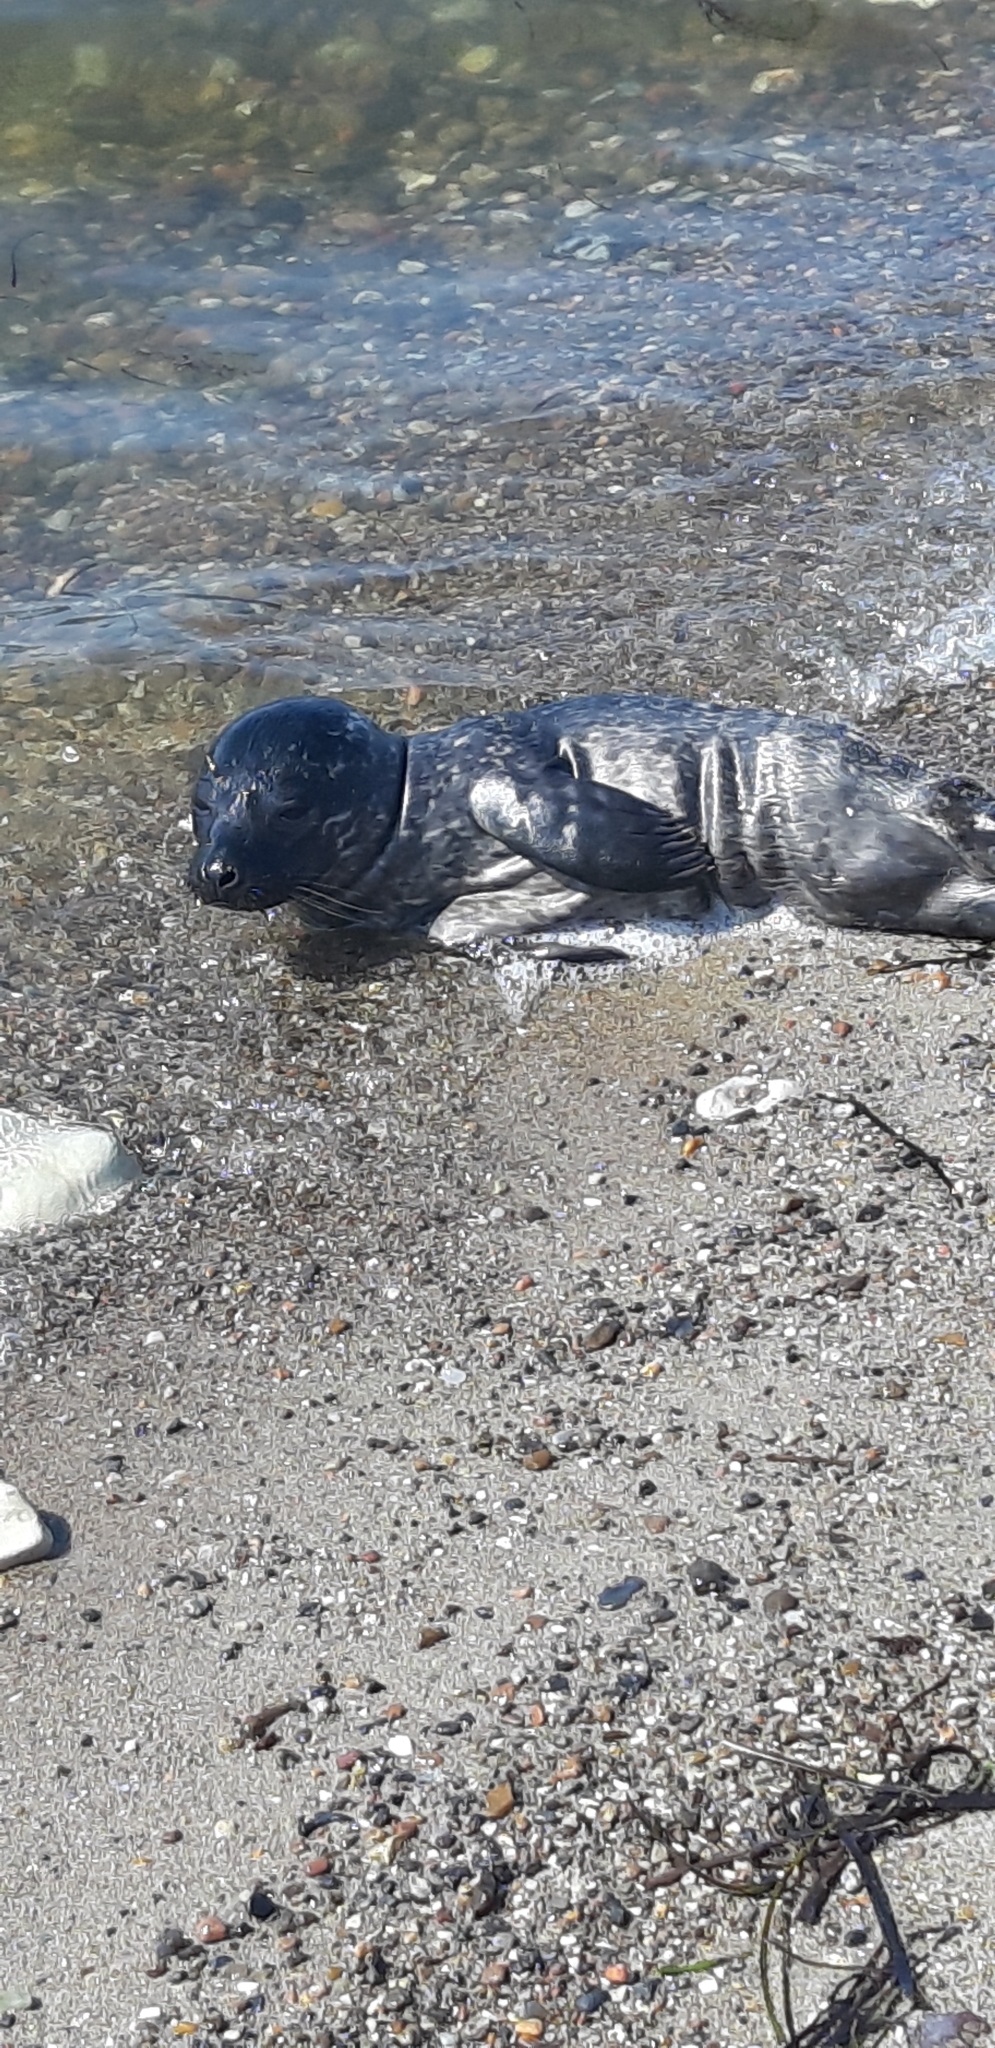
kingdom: Animalia
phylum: Chordata
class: Mammalia
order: Carnivora
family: Phocidae
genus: Phoca
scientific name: Phoca vitulina
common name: Harbor seal
